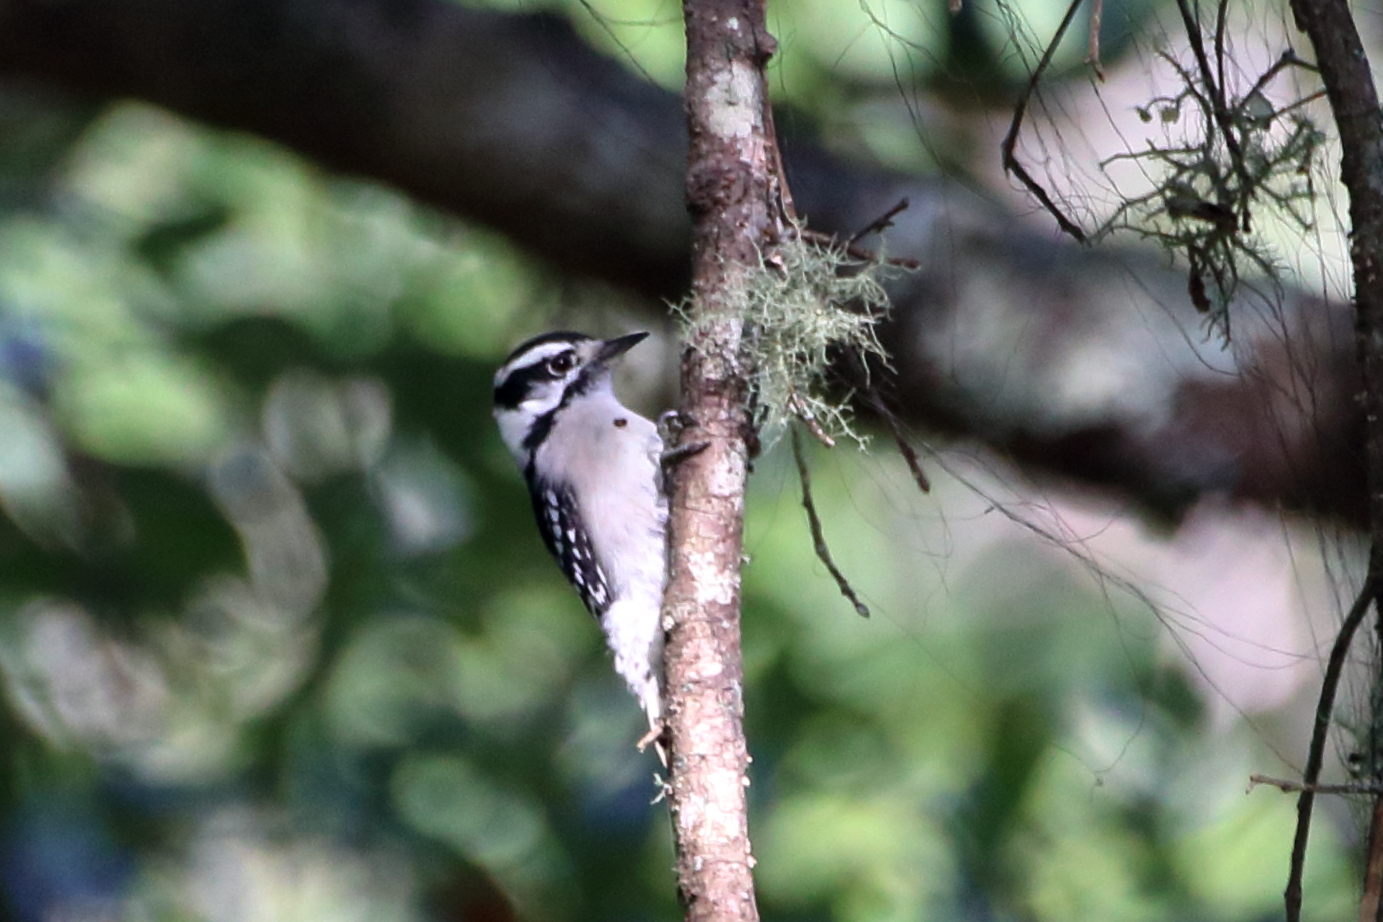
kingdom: Animalia
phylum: Chordata
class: Aves
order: Piciformes
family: Picidae
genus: Dryobates
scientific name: Dryobates pubescens
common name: Downy woodpecker
